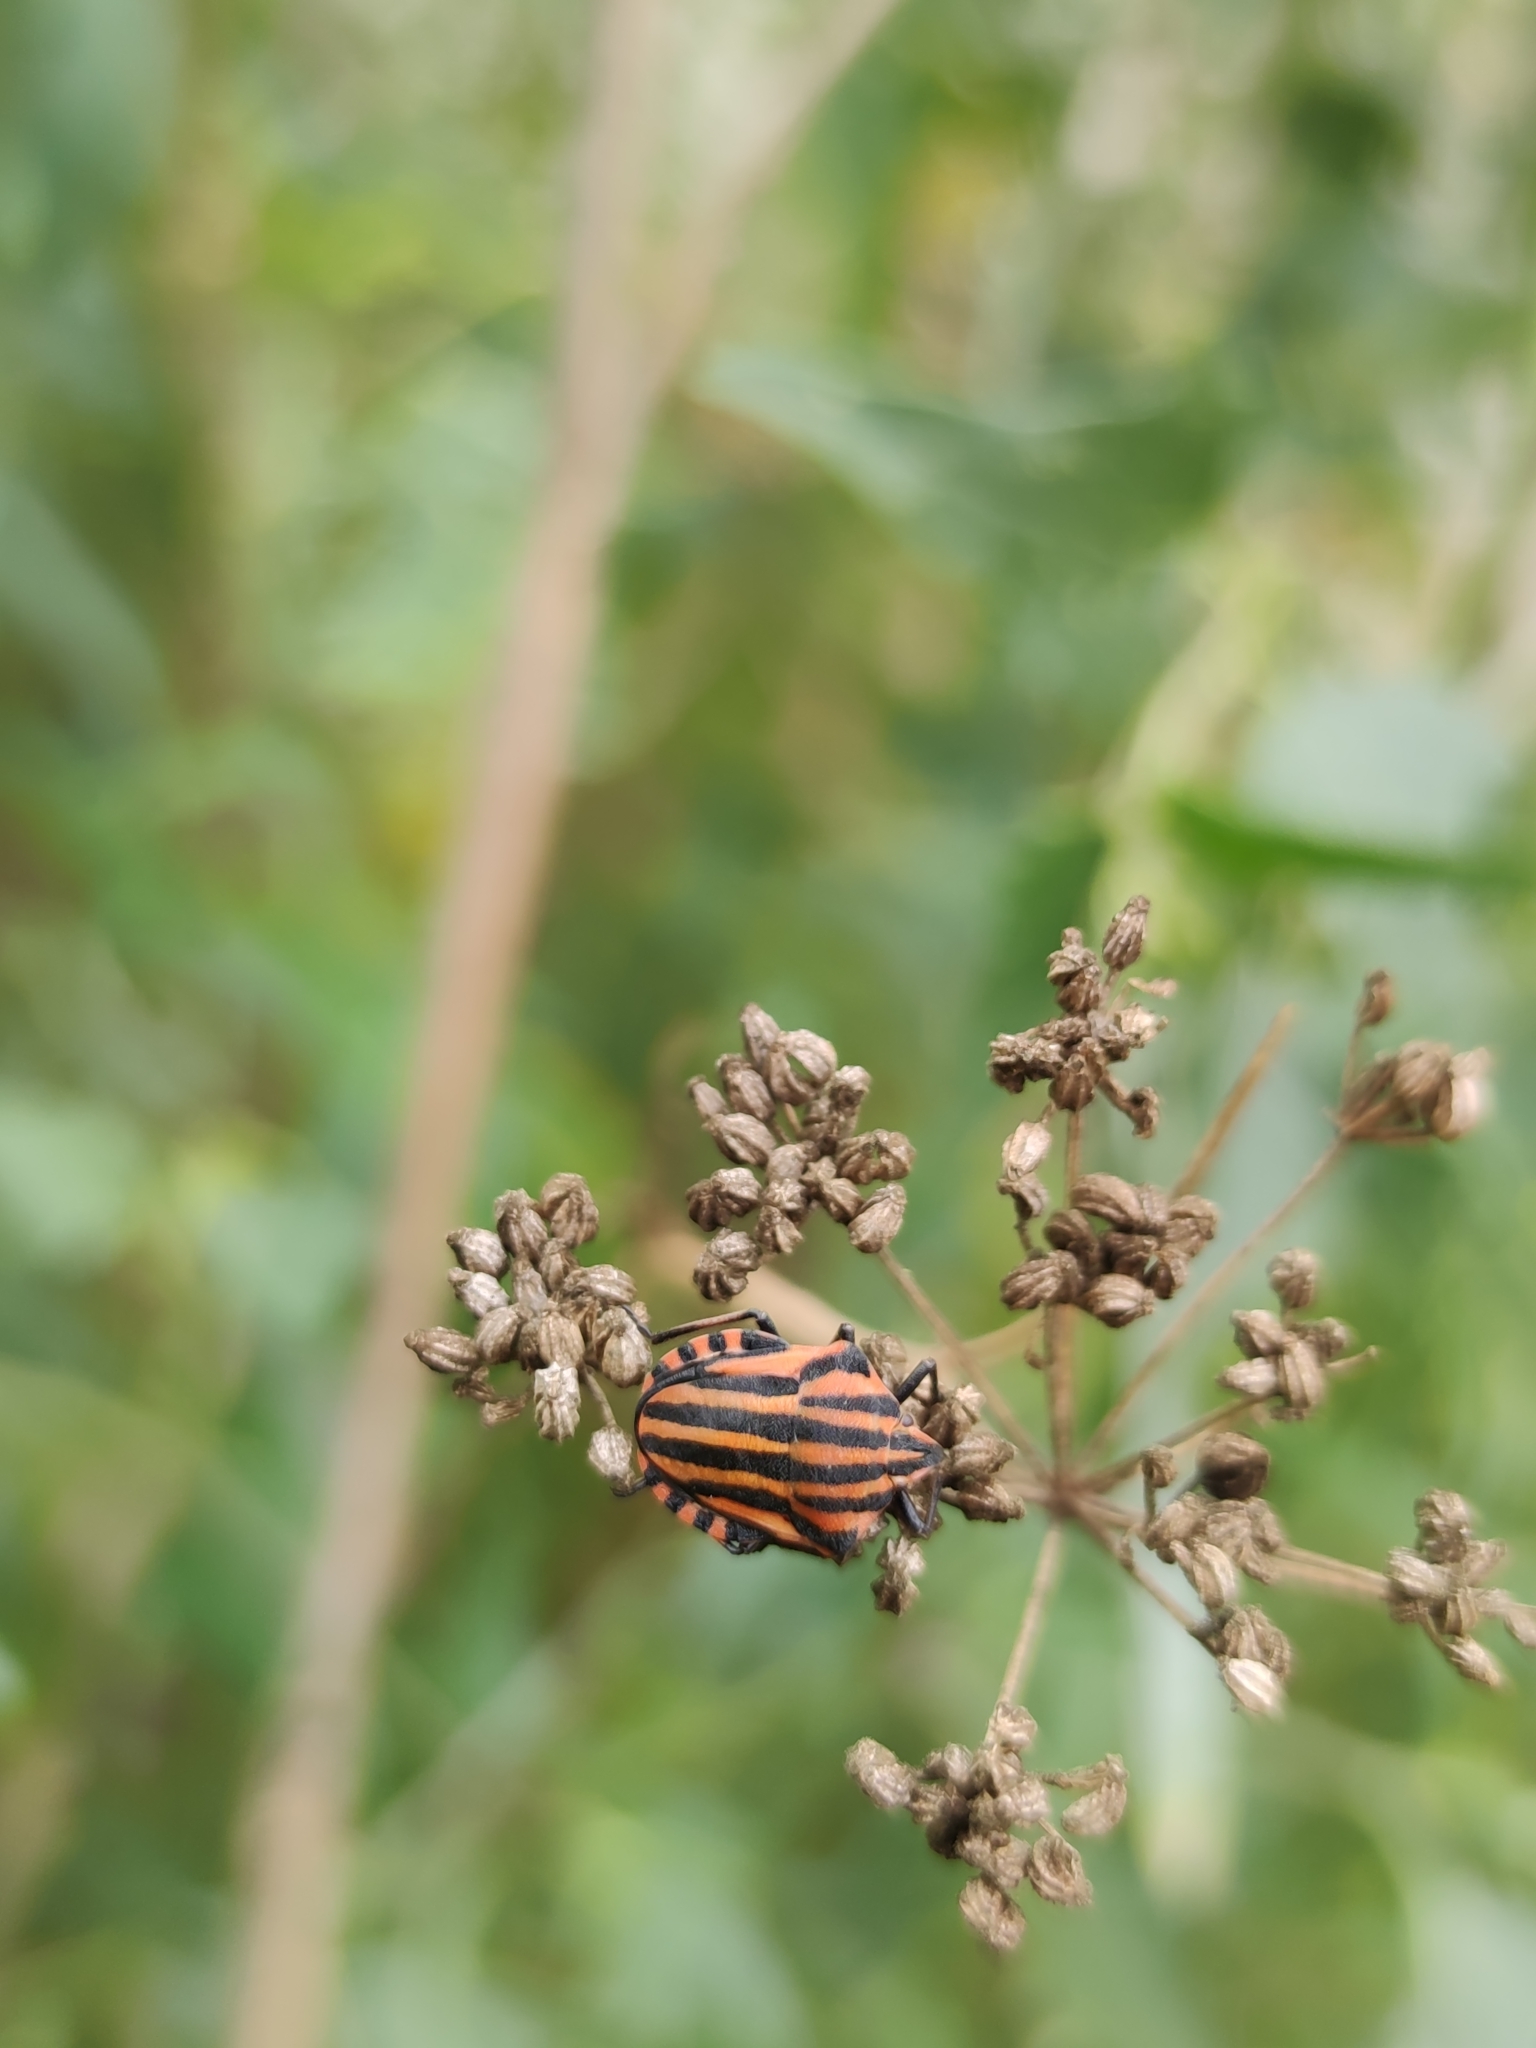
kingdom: Animalia
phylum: Arthropoda
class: Insecta
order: Hemiptera
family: Pentatomidae
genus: Graphosoma
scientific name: Graphosoma italicum
